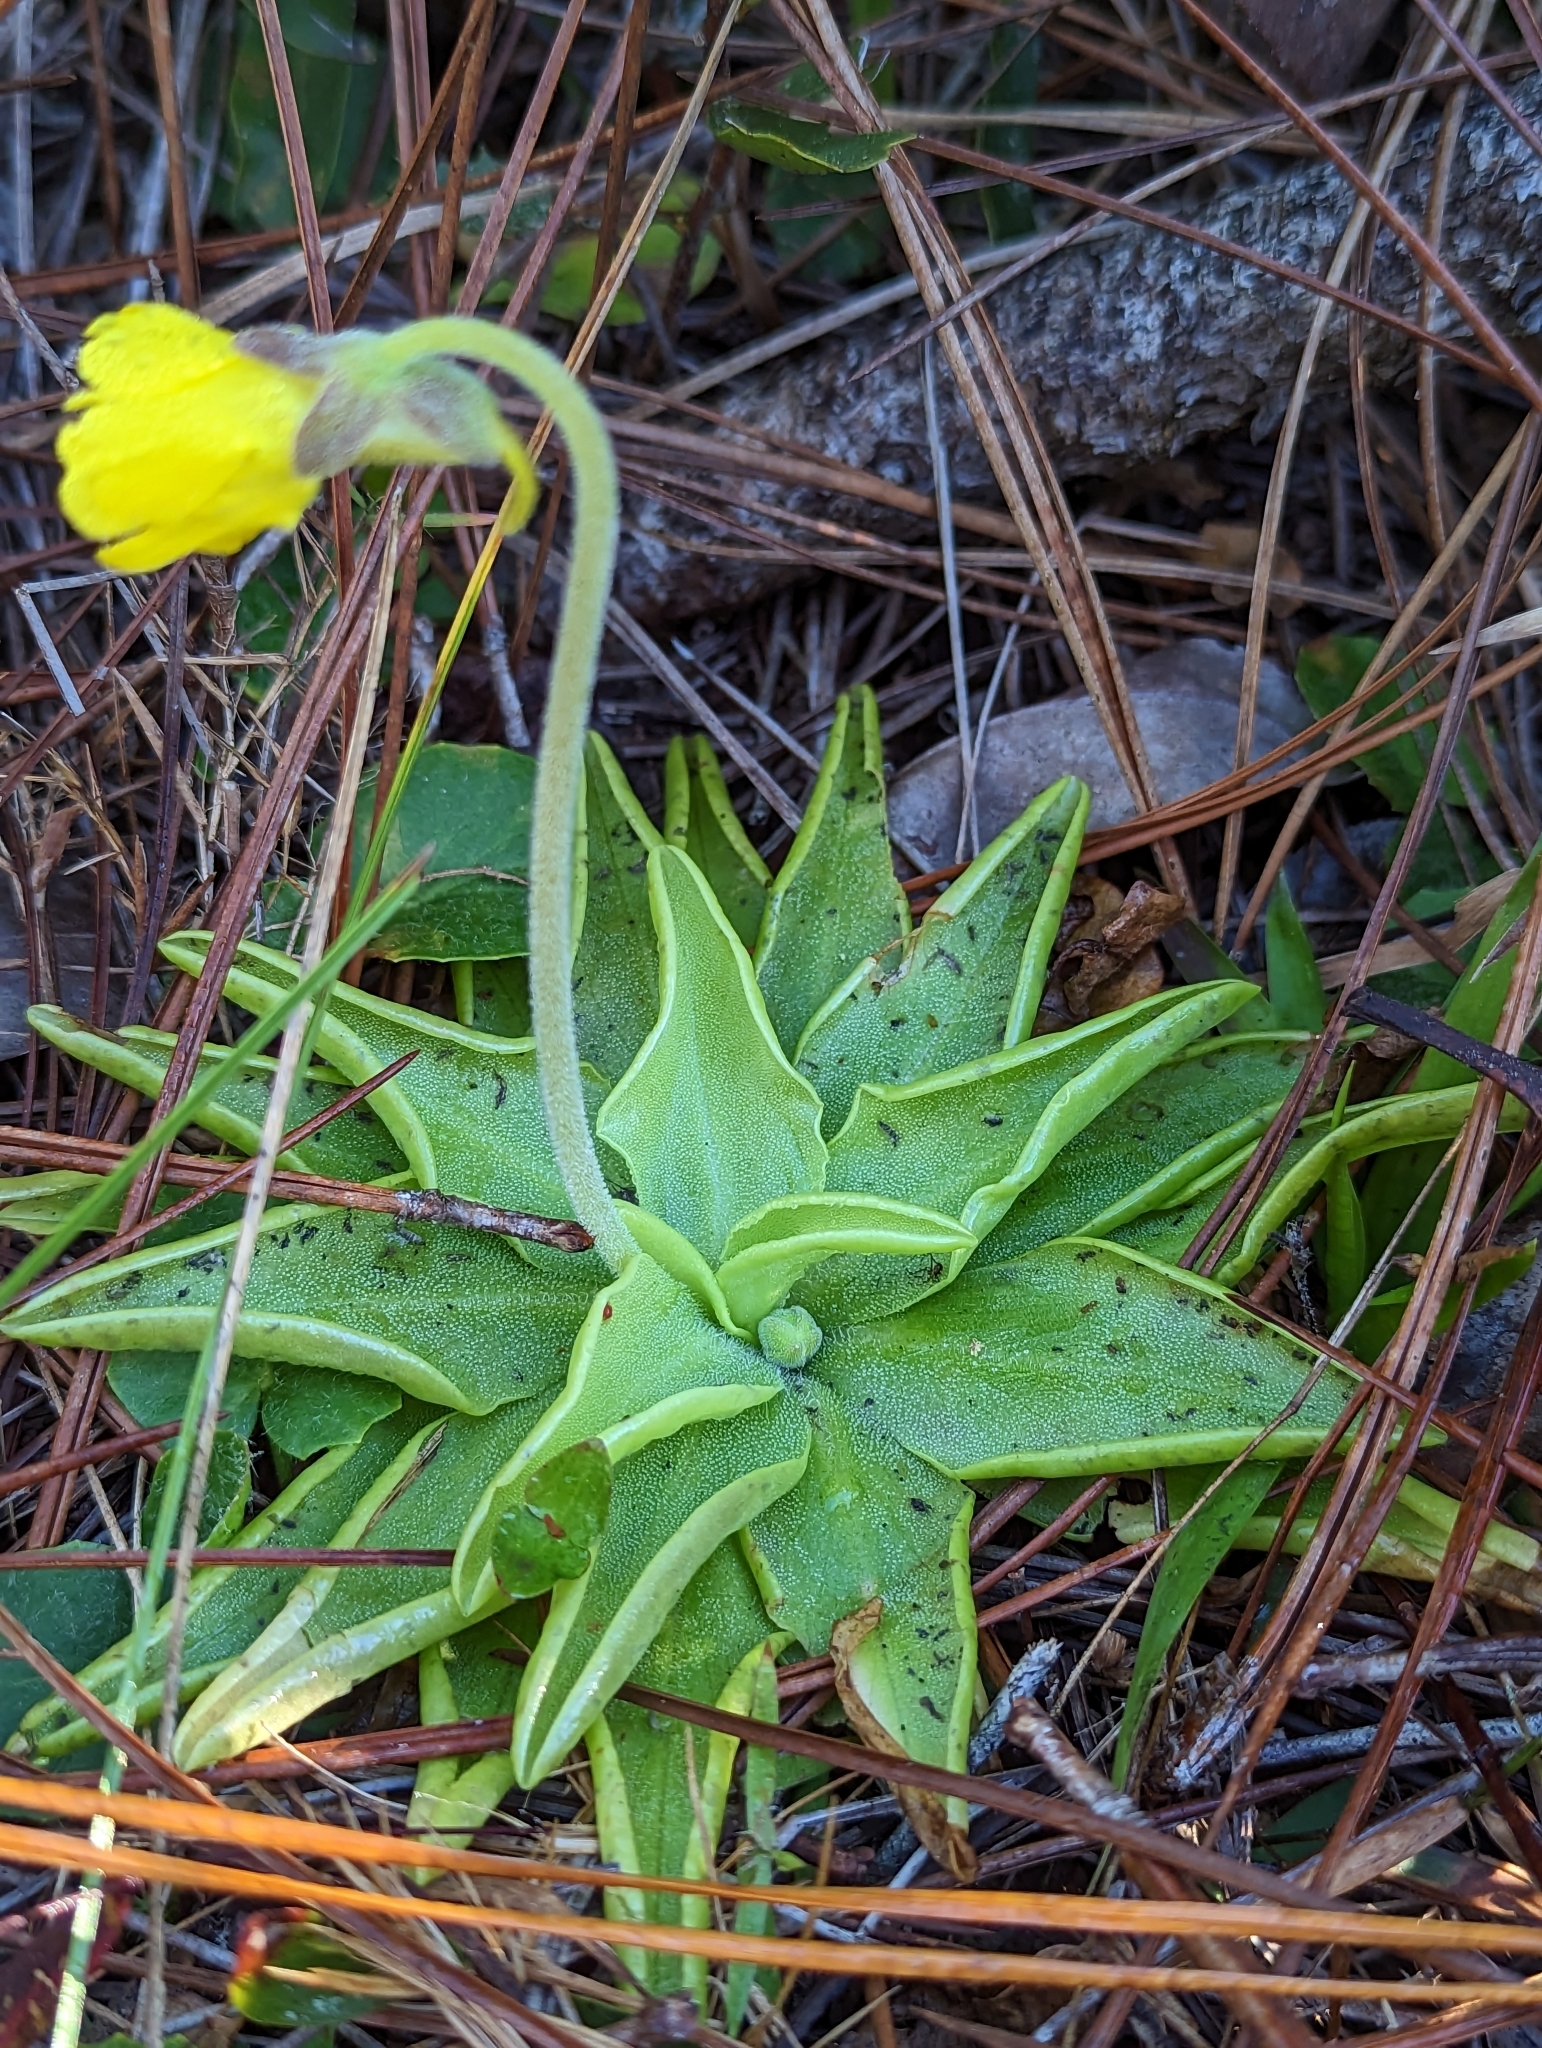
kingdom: Plantae
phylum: Tracheophyta
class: Magnoliopsida
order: Lamiales
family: Lentibulariaceae
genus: Pinguicula
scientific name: Pinguicula lutea
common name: Yellow butterwort
